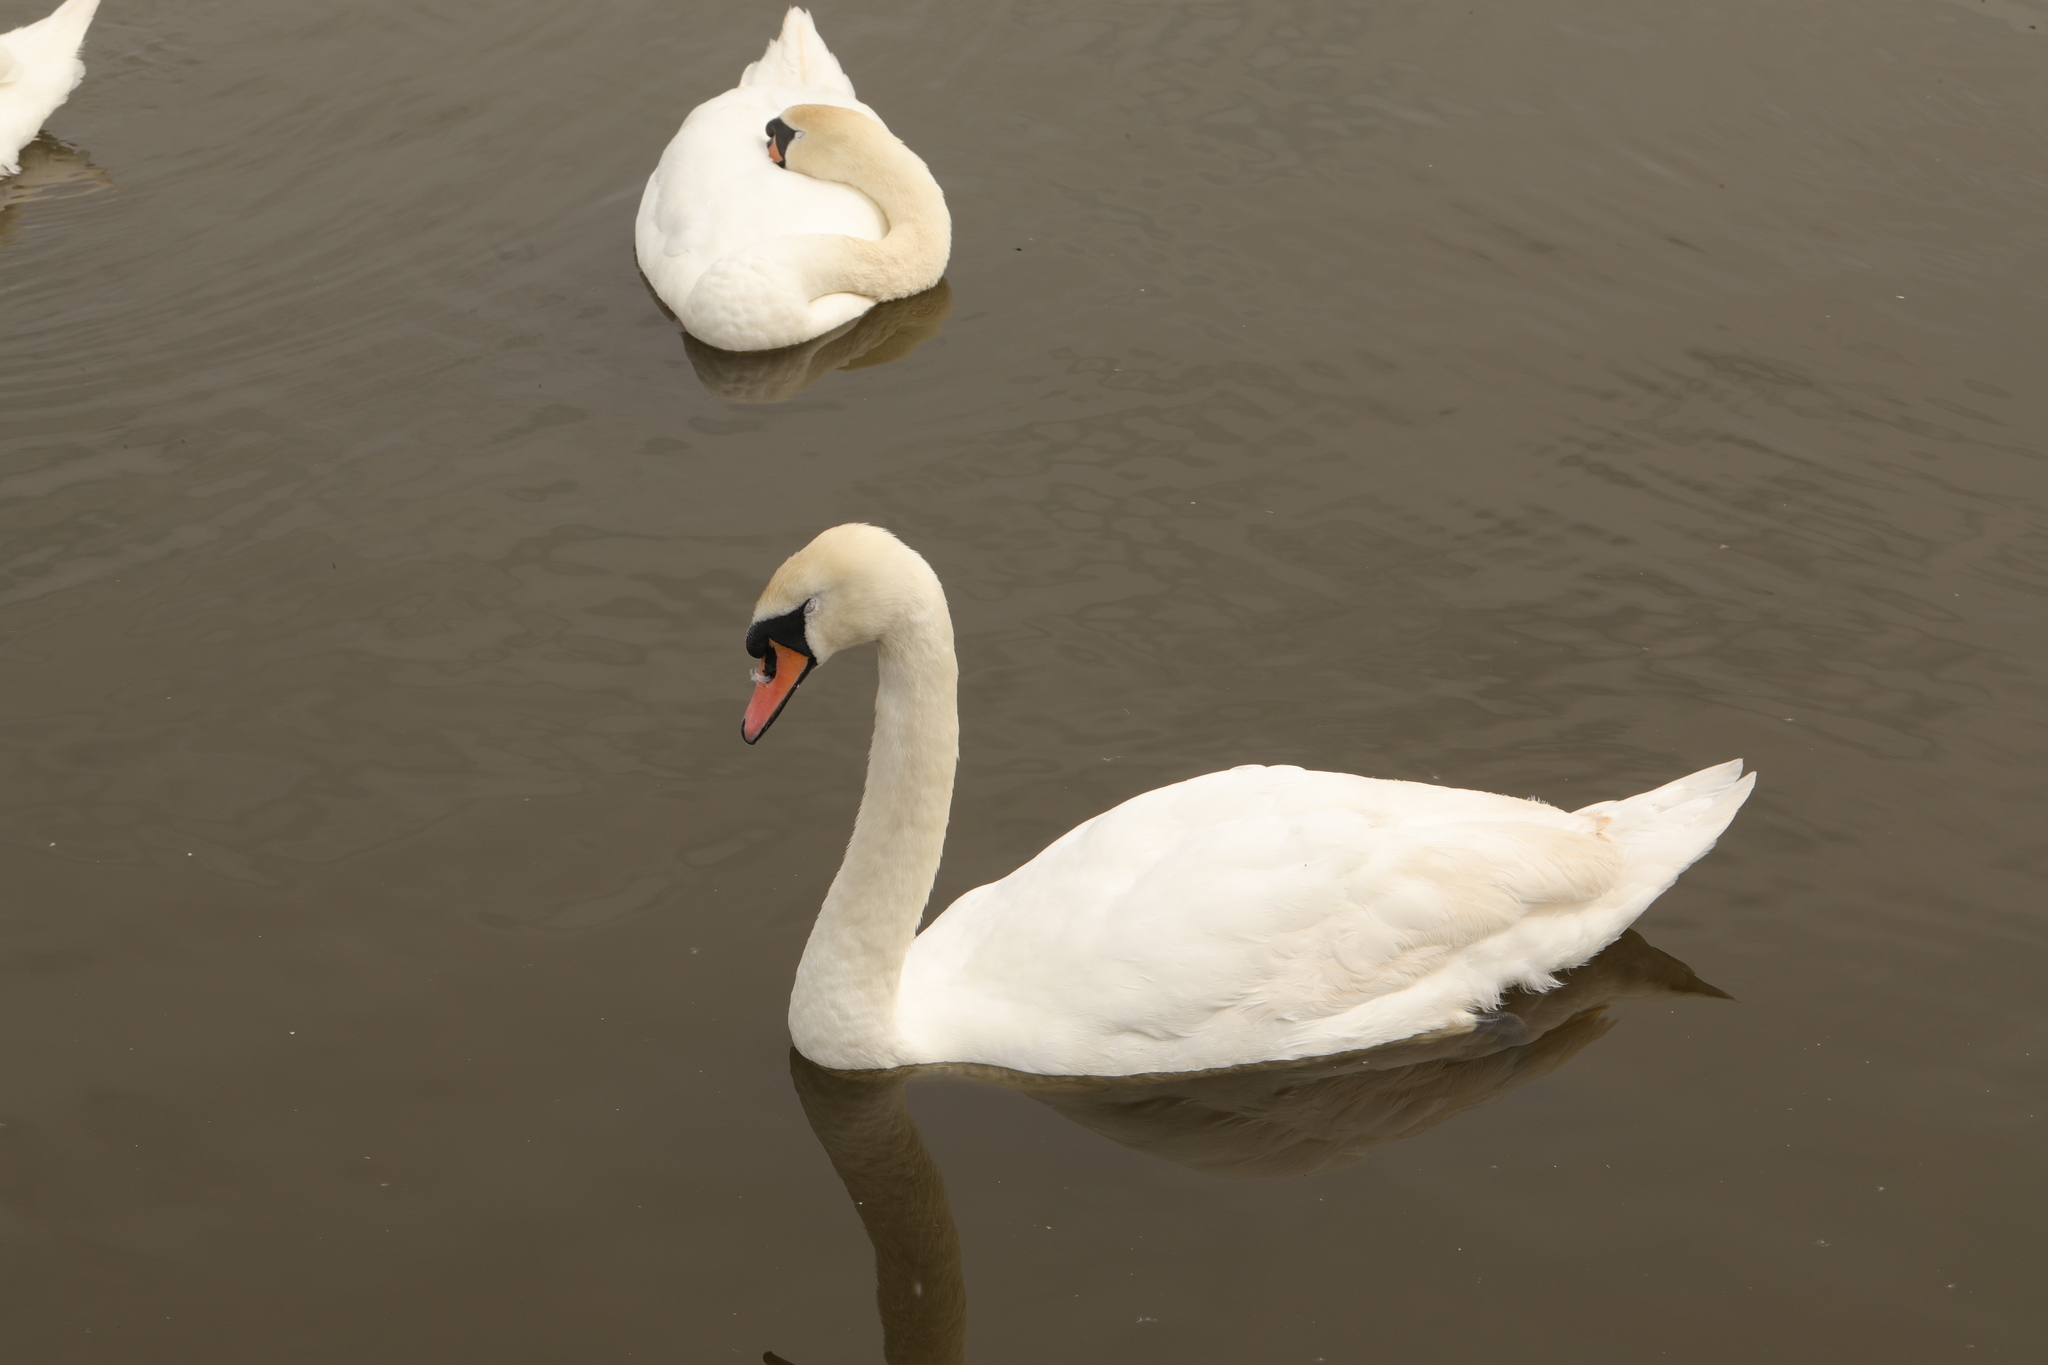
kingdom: Animalia
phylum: Chordata
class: Aves
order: Anseriformes
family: Anatidae
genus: Cygnus
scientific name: Cygnus olor
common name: Mute swan
